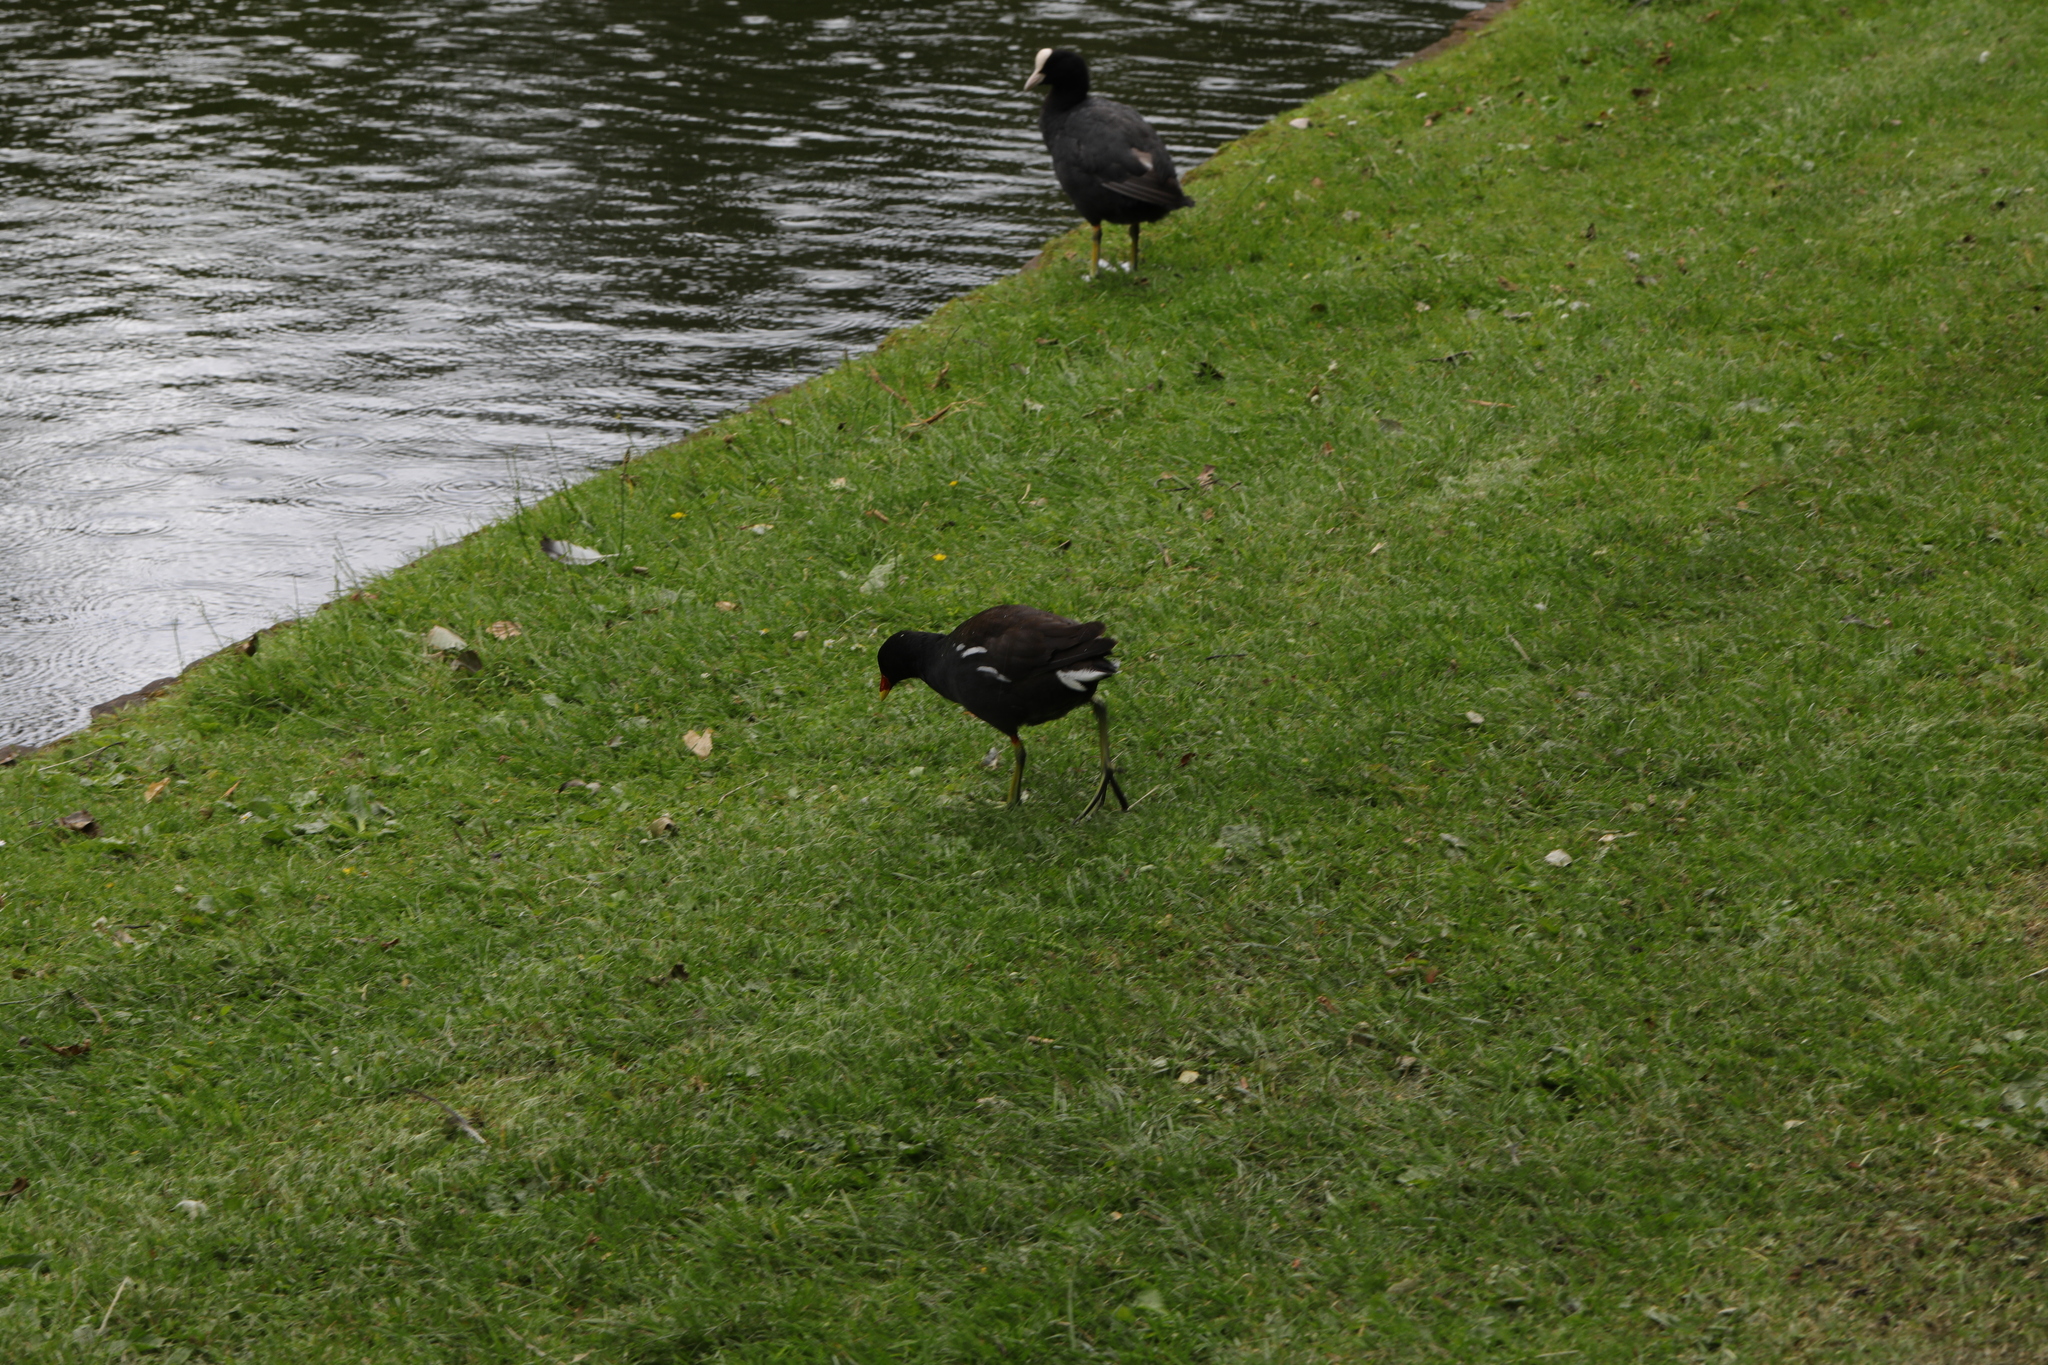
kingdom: Animalia
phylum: Chordata
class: Aves
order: Gruiformes
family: Rallidae
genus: Gallinula
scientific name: Gallinula chloropus
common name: Common moorhen
